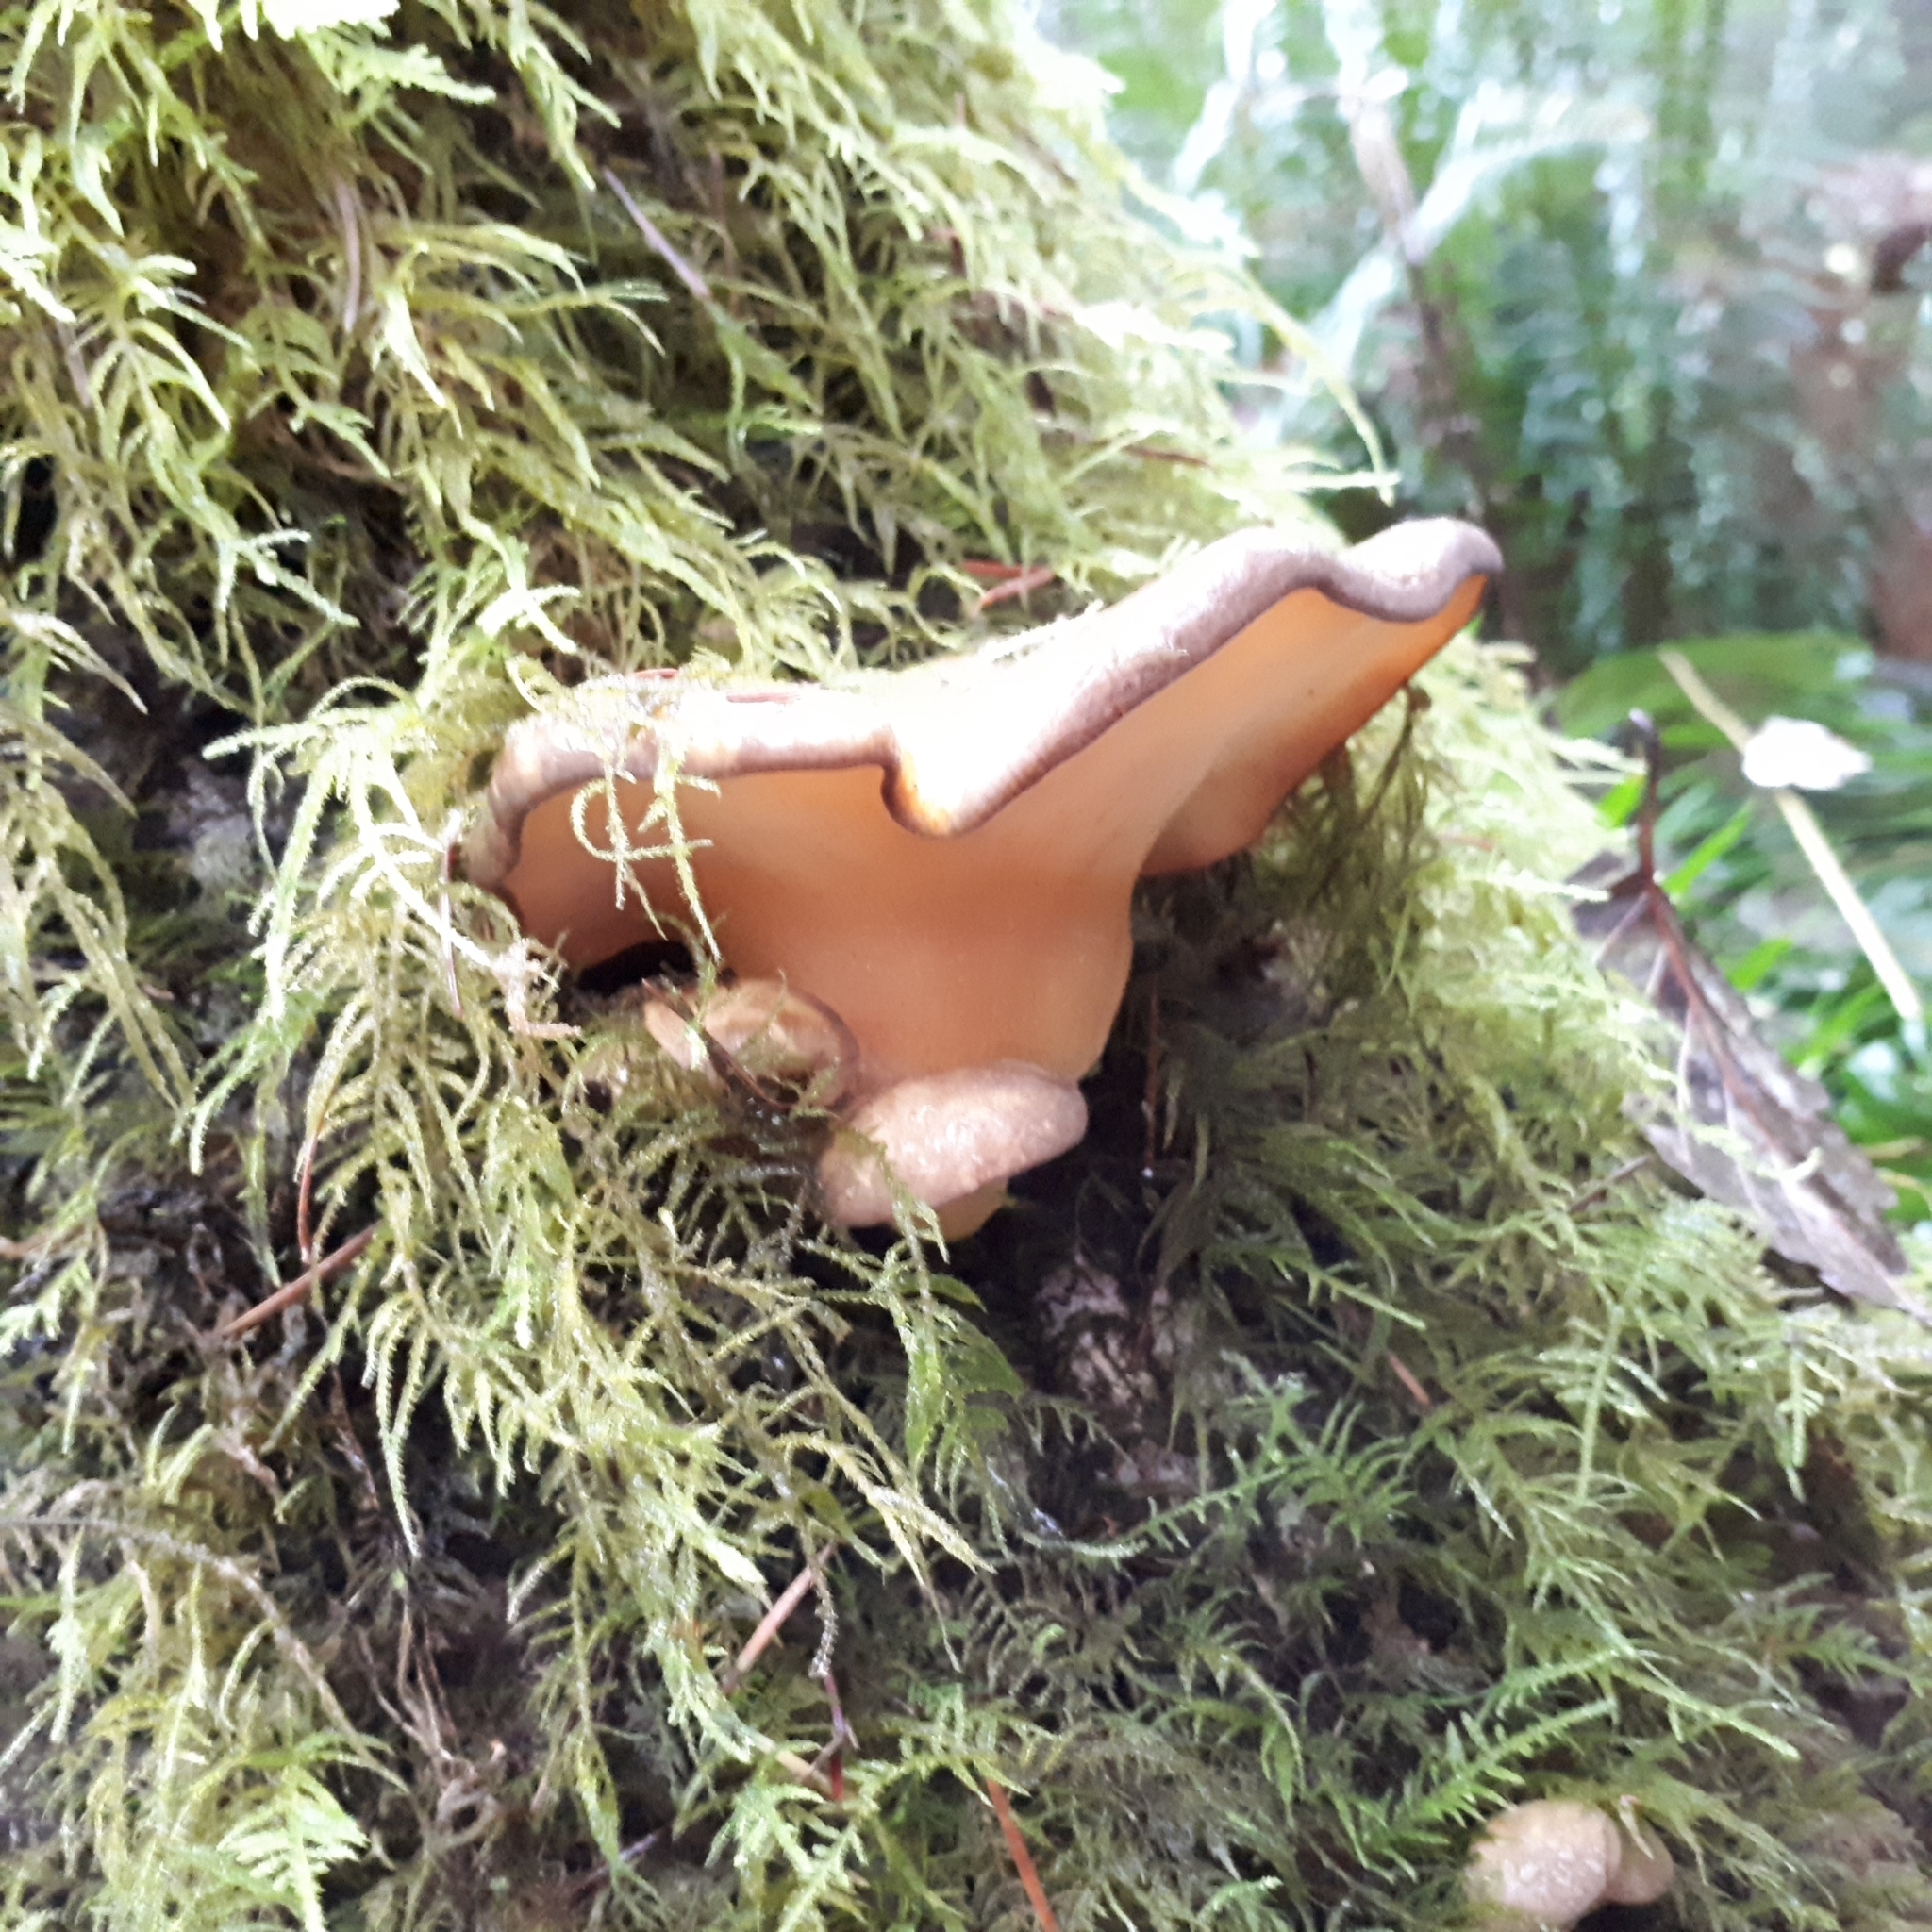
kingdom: Fungi
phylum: Basidiomycota
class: Agaricomycetes
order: Agaricales
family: Sarcomyxaceae
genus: Sarcomyxa
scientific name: Sarcomyxa serotina
